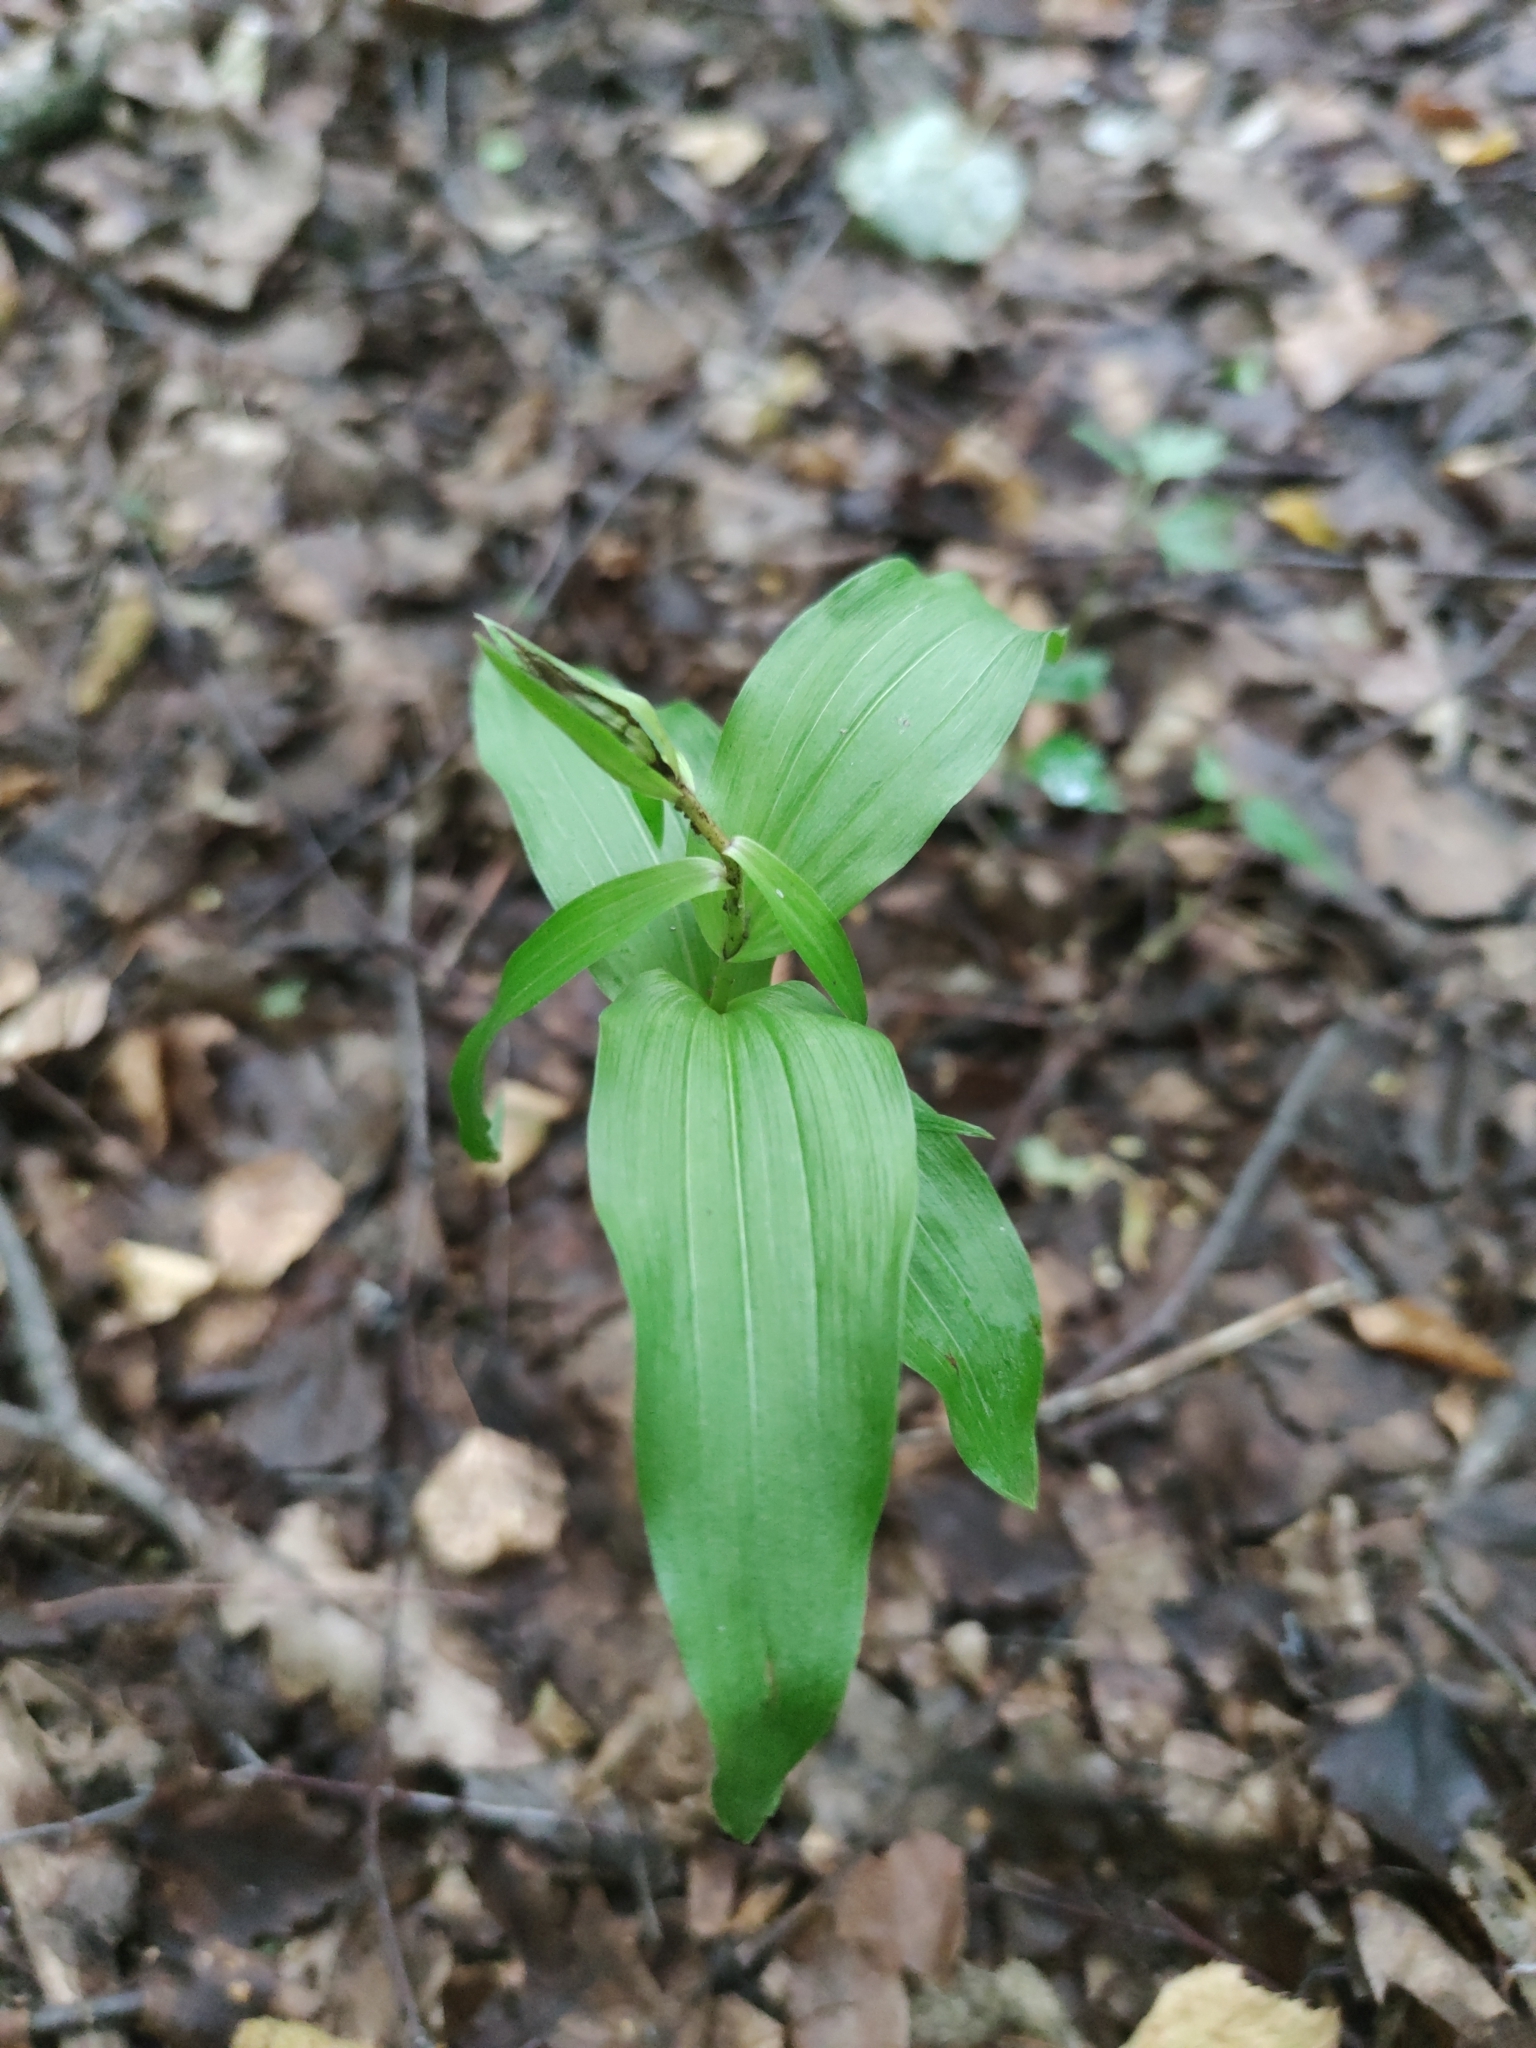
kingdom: Plantae
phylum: Tracheophyta
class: Liliopsida
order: Asparagales
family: Orchidaceae
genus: Epipactis
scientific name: Epipactis helleborine
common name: Broad-leaved helleborine
